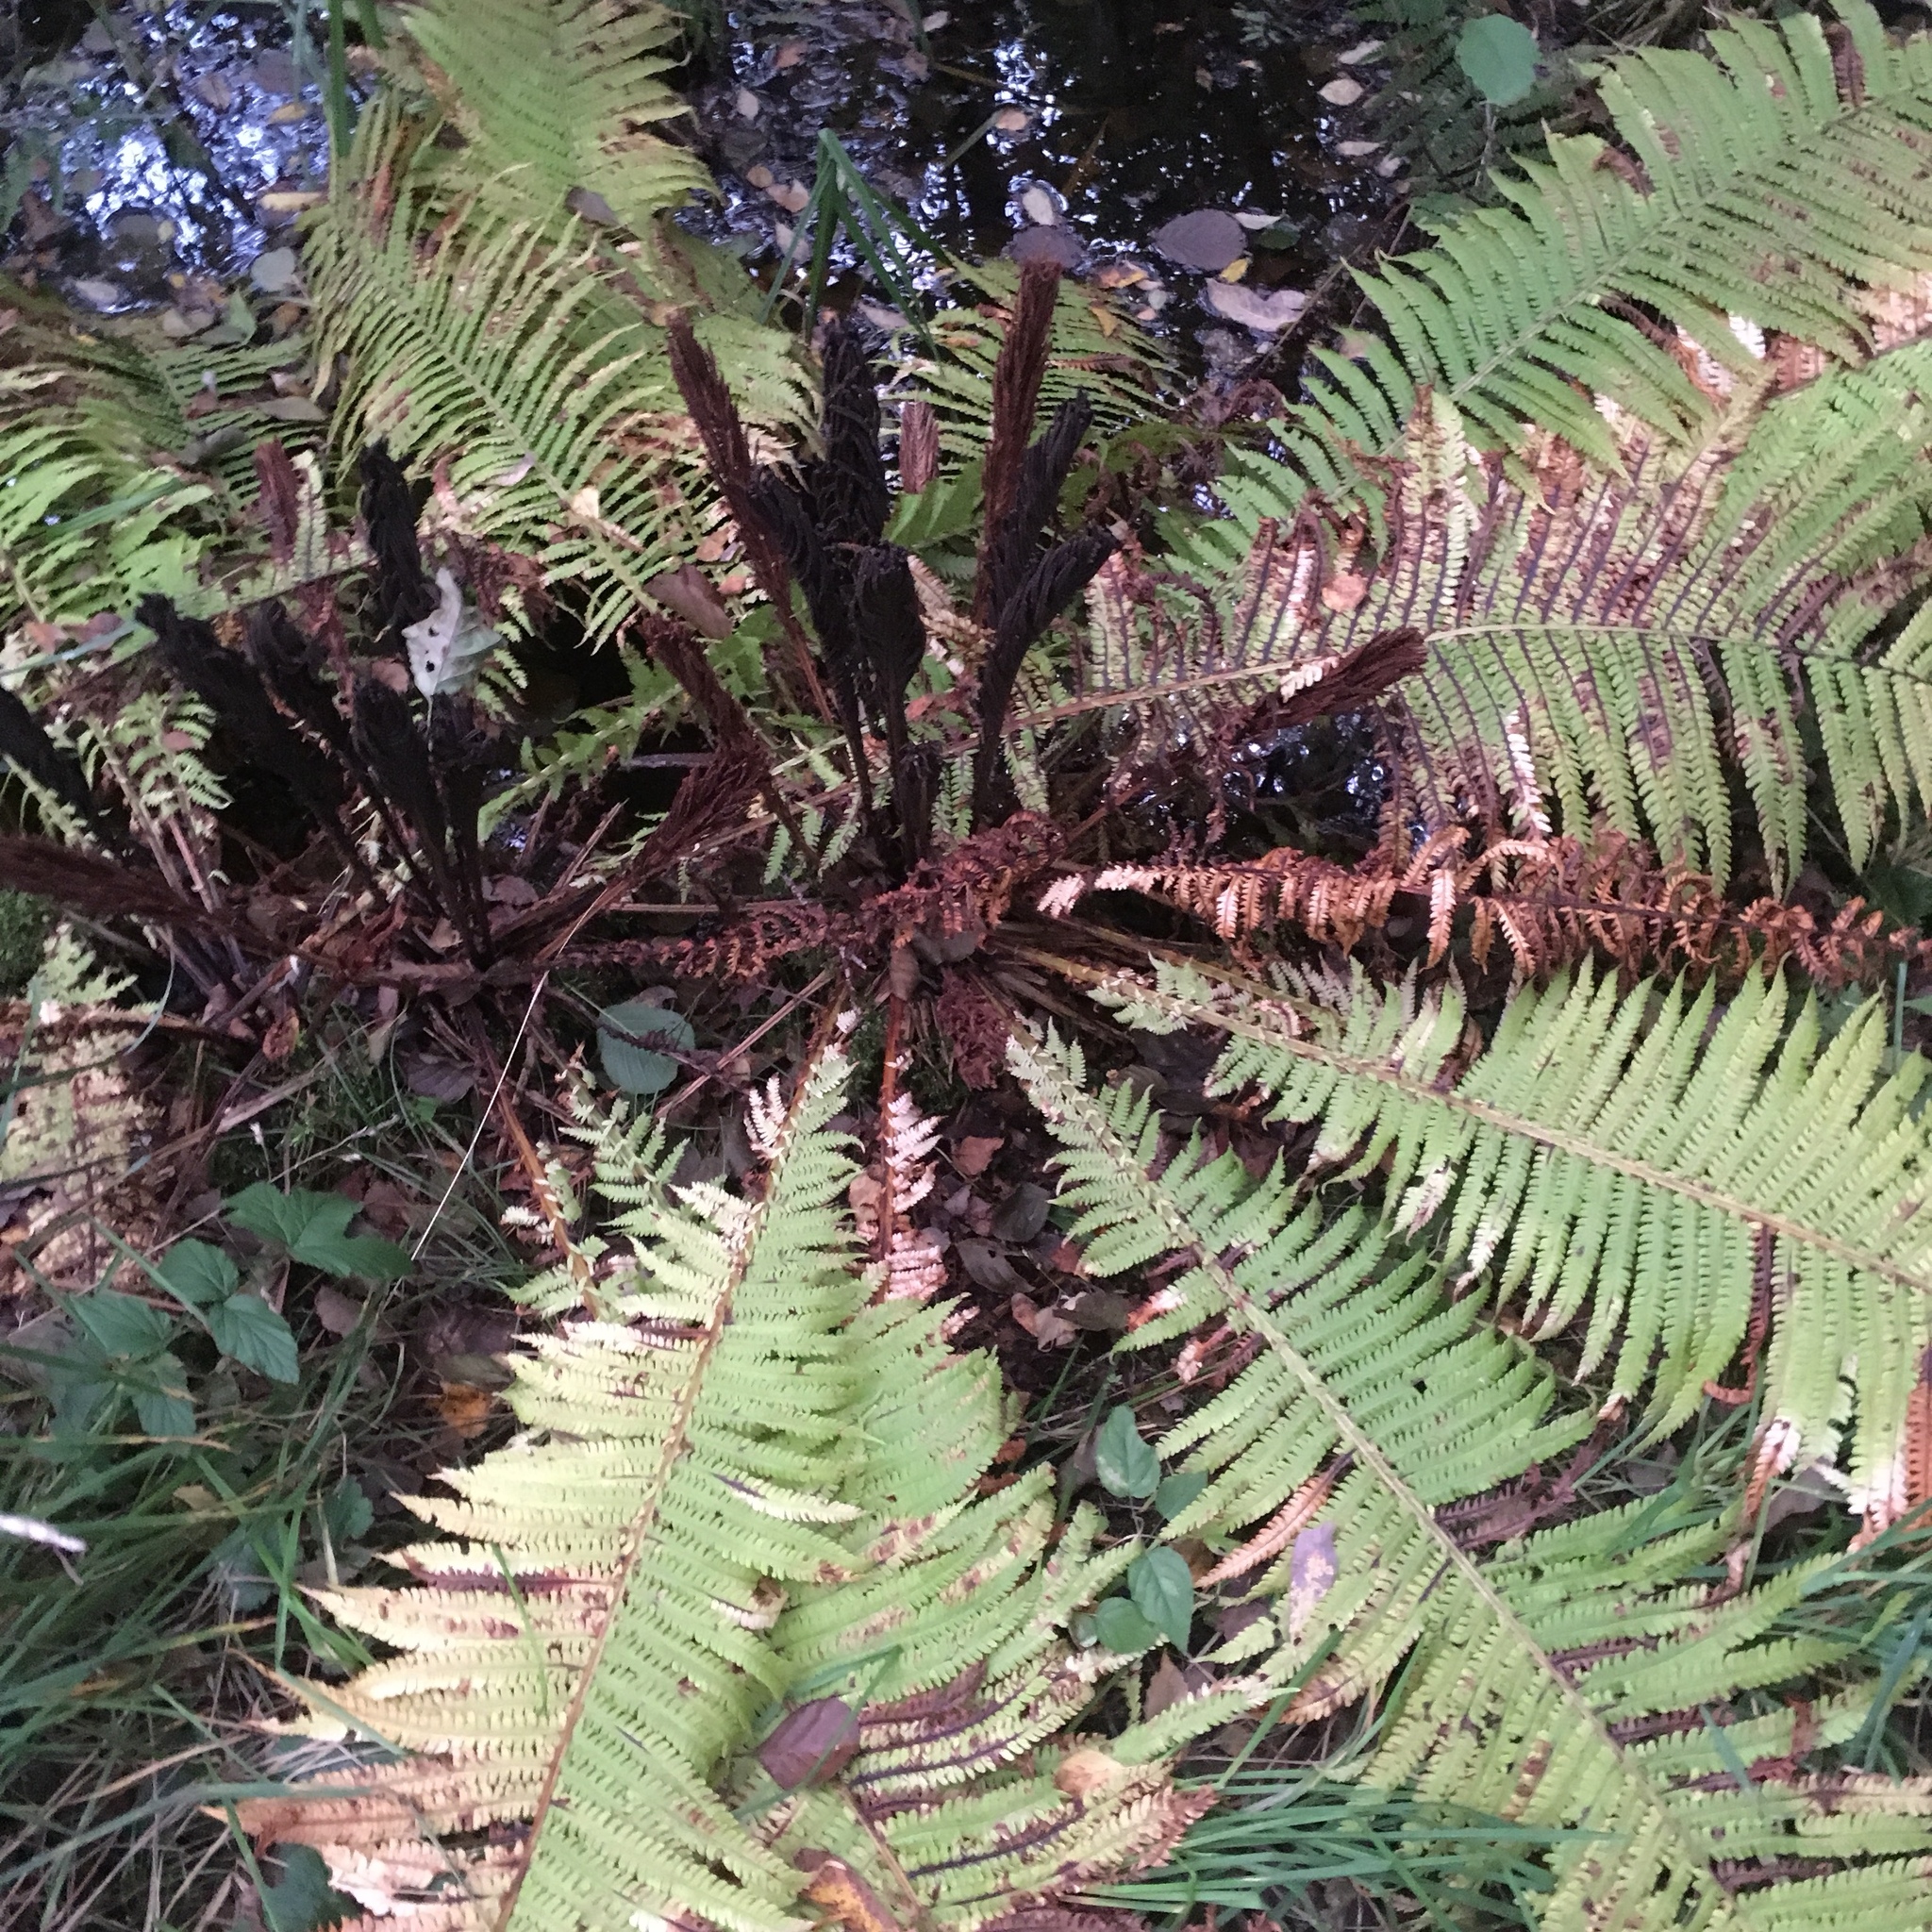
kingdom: Plantae
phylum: Tracheophyta
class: Polypodiopsida
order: Polypodiales
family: Onocleaceae
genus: Matteuccia
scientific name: Matteuccia struthiopteris
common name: Ostrich fern
